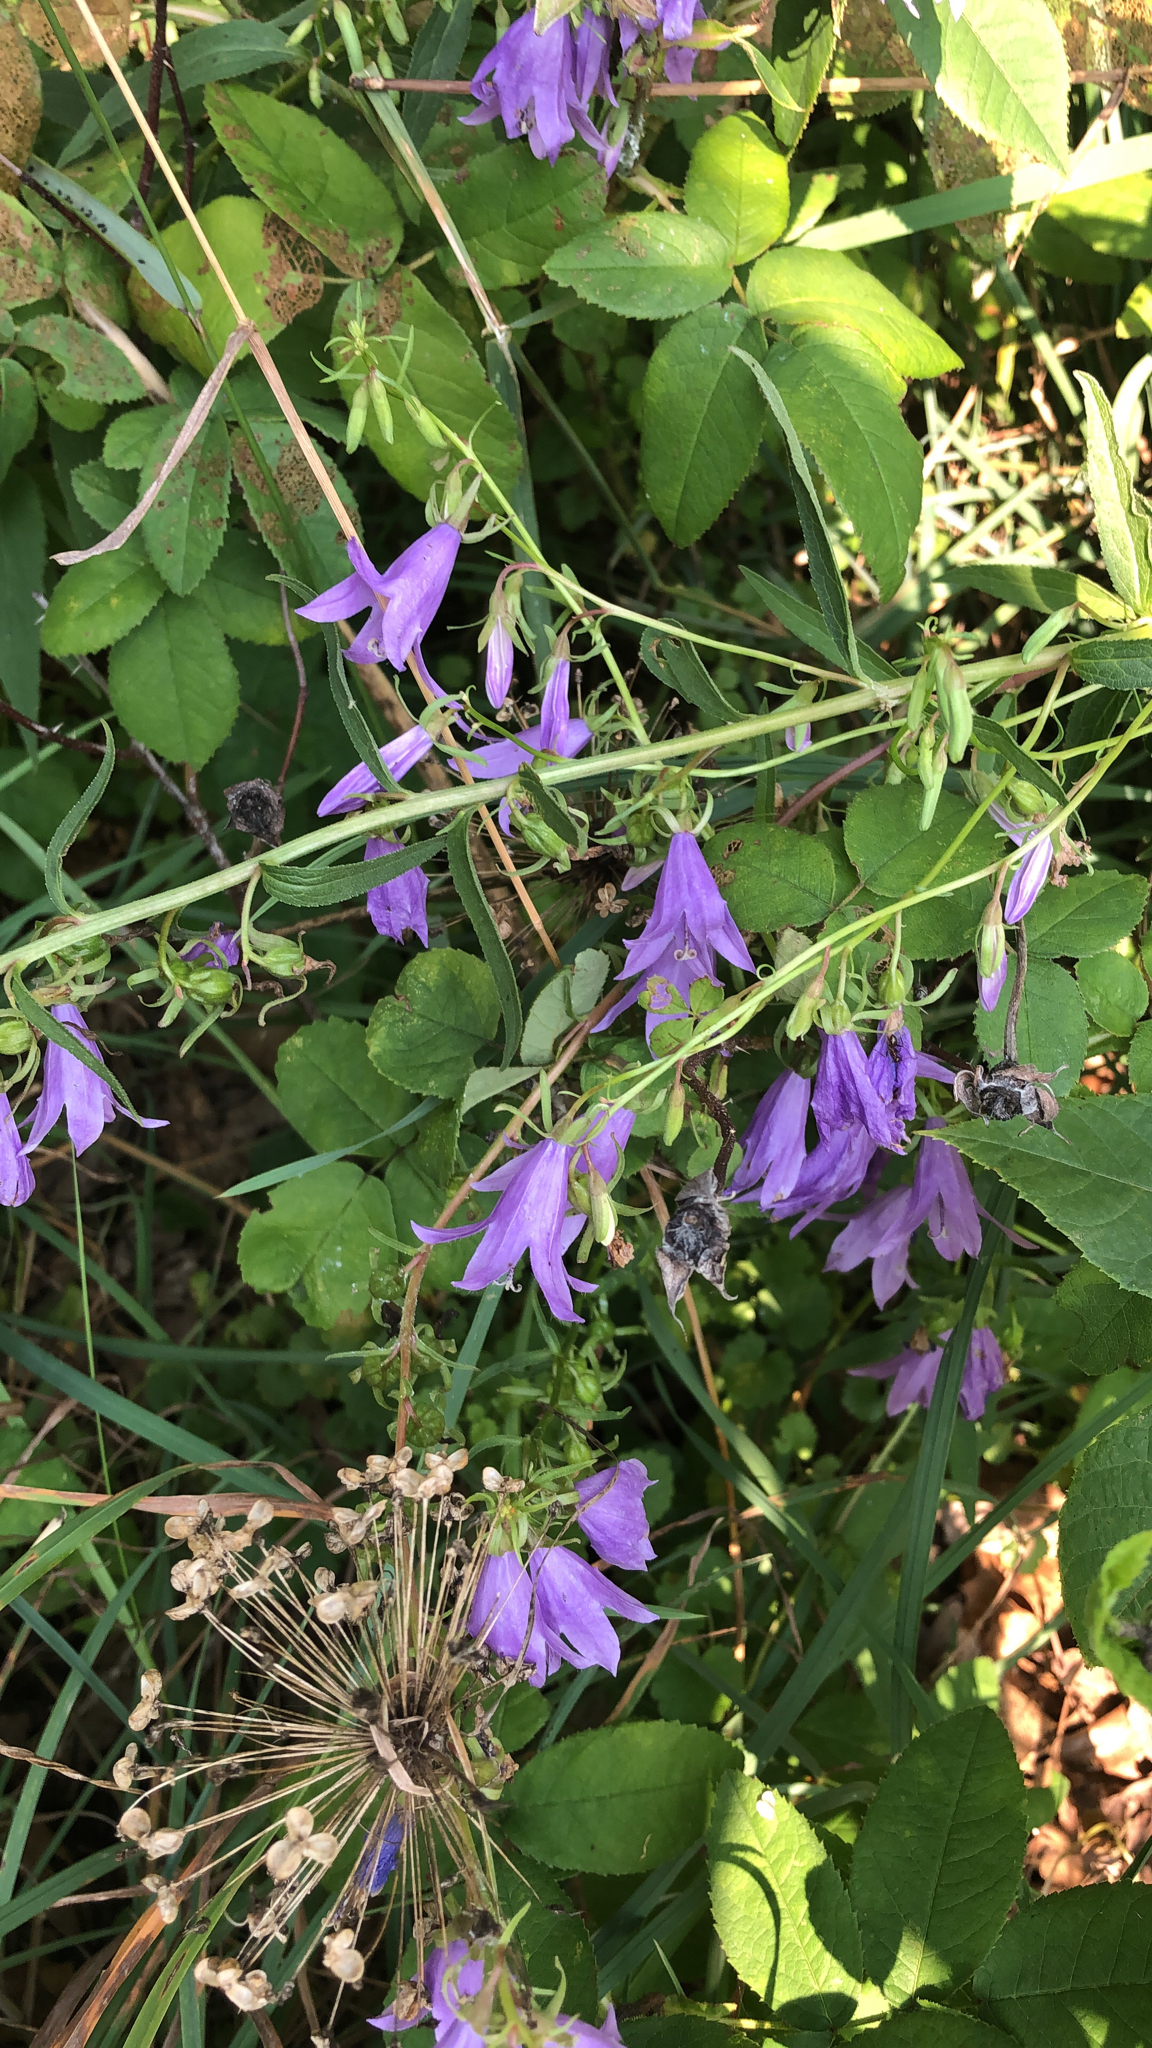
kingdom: Plantae
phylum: Tracheophyta
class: Magnoliopsida
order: Asterales
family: Campanulaceae
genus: Campanula
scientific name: Campanula rapunculoides
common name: Creeping bellflower
